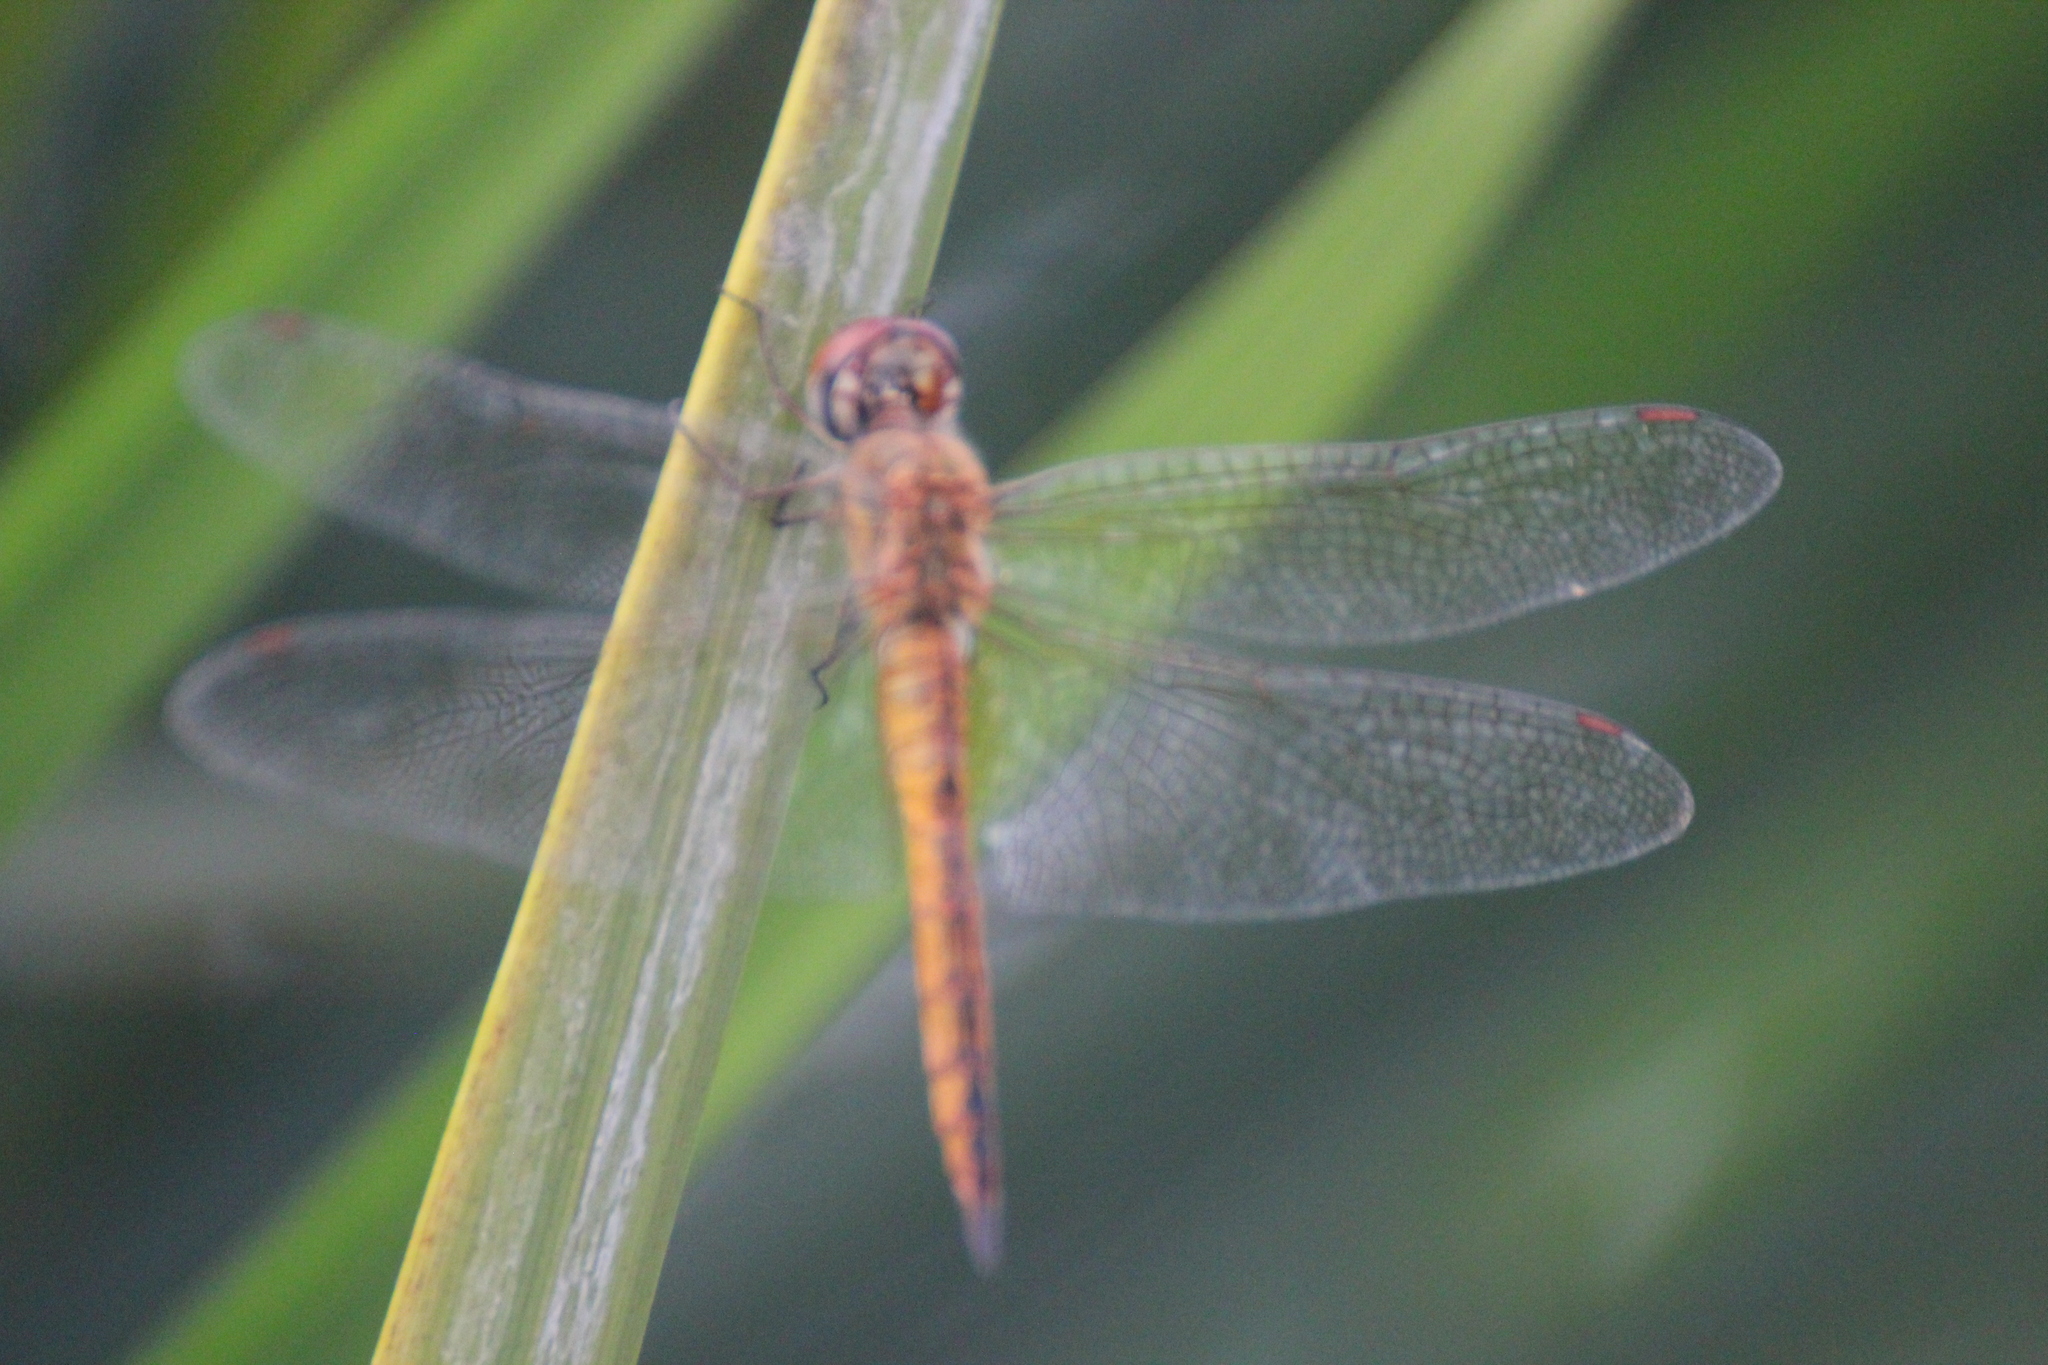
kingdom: Animalia
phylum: Arthropoda
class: Insecta
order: Odonata
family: Libellulidae
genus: Pantala
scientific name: Pantala flavescens
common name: Wandering glider
